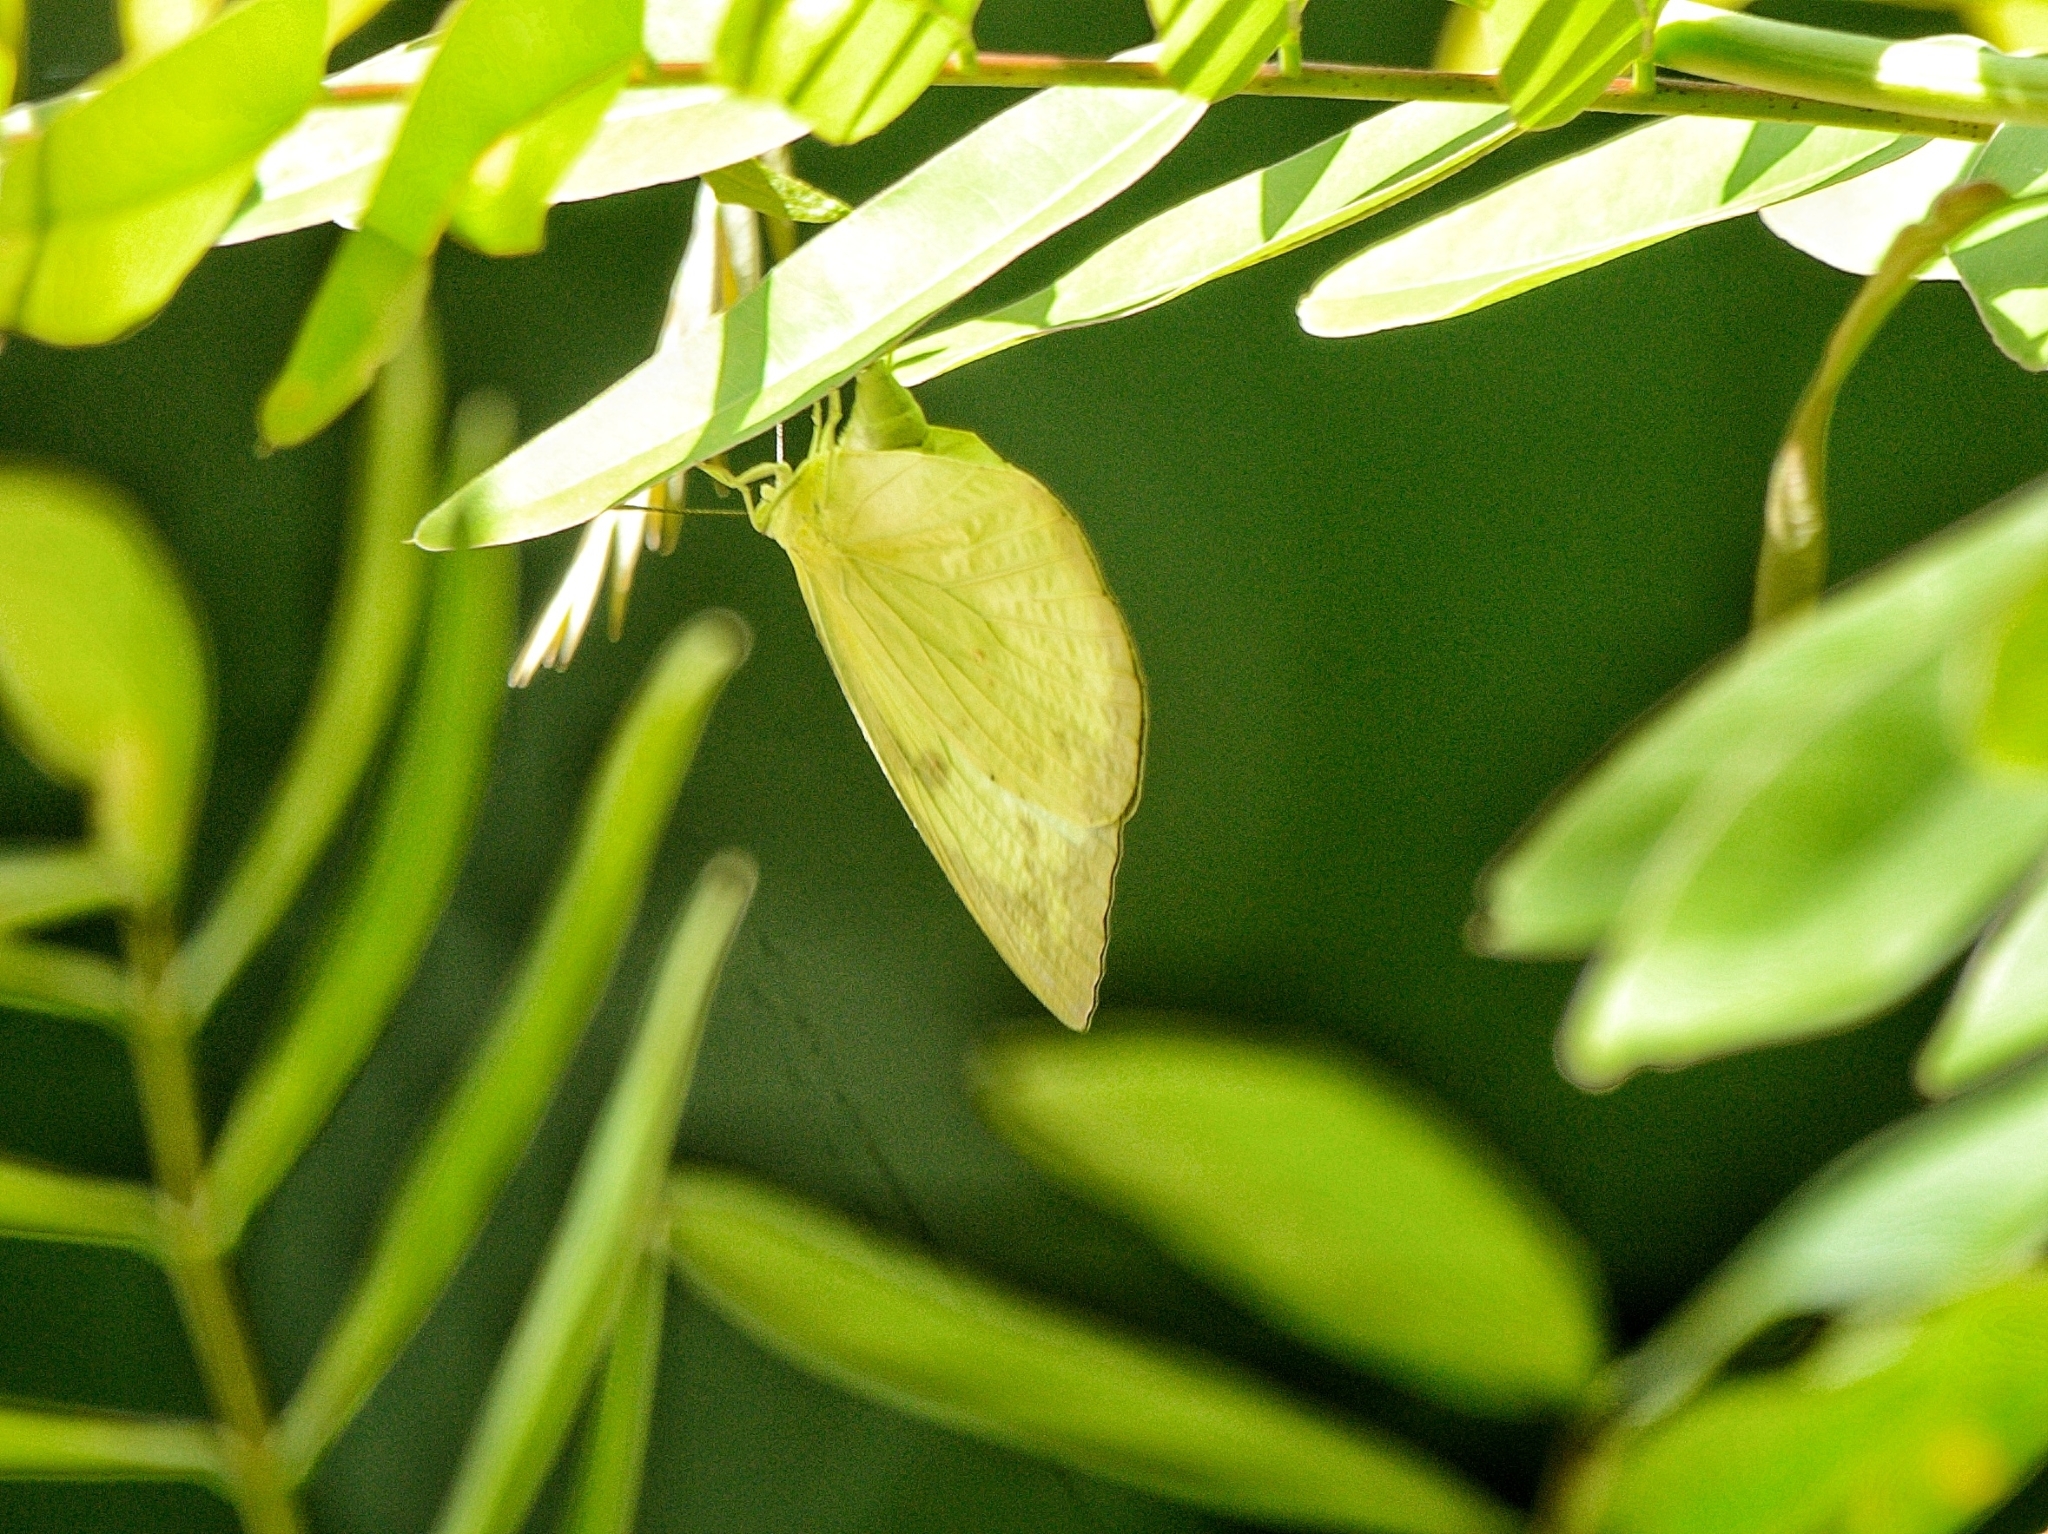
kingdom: Animalia
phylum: Arthropoda
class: Insecta
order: Lepidoptera
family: Pieridae
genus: Catopsilia
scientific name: Catopsilia pyranthe
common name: Mottled emigrant
